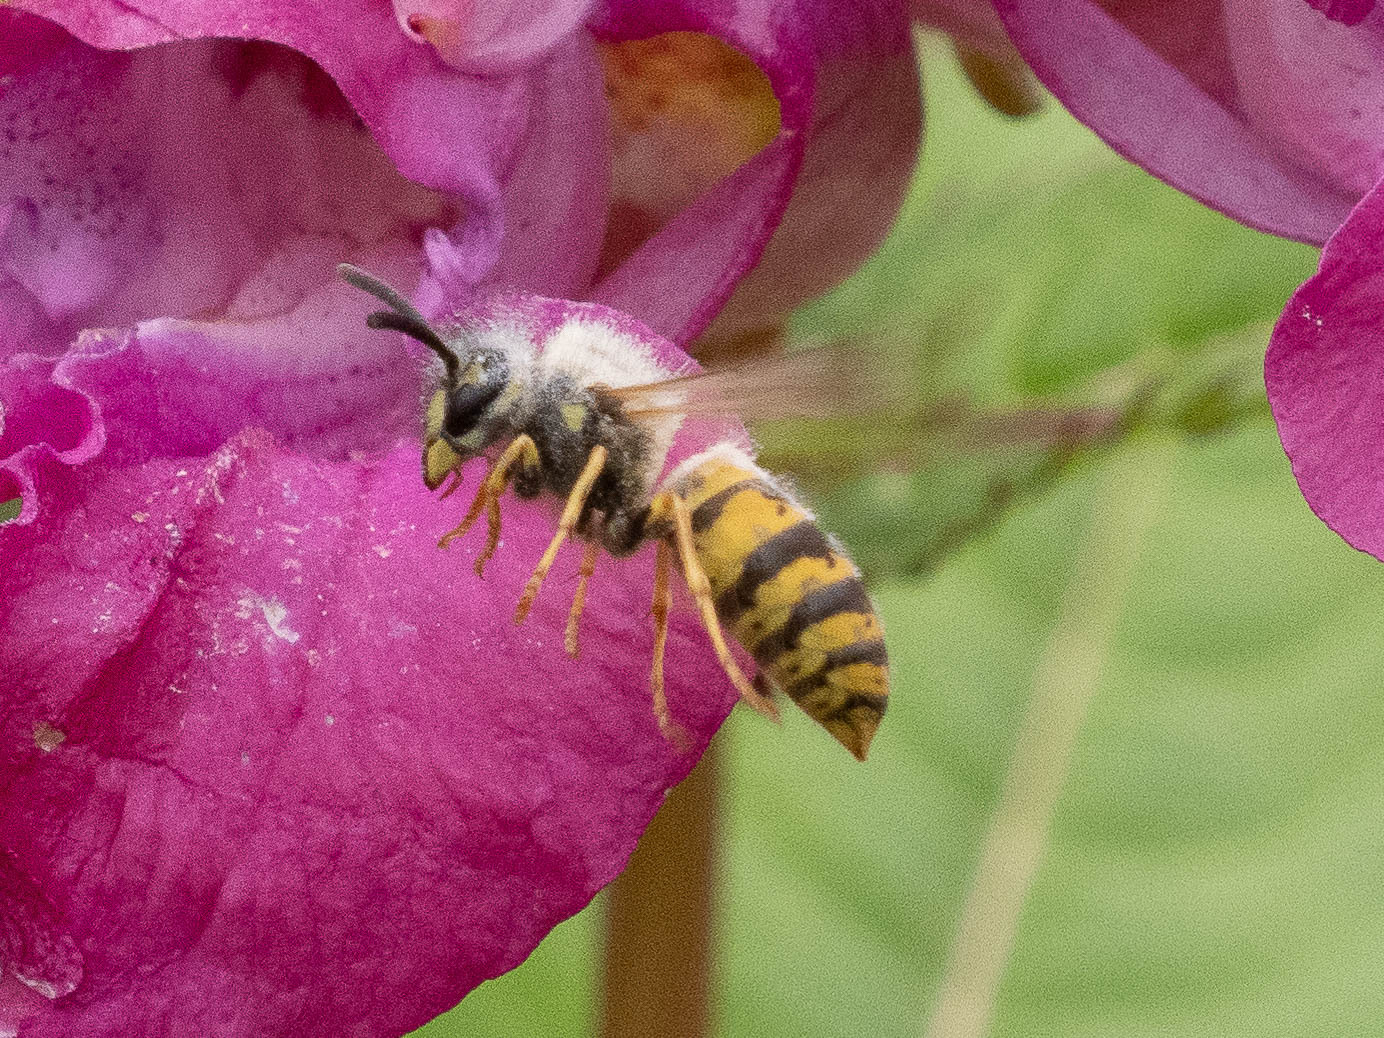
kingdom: Animalia
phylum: Arthropoda
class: Insecta
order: Hymenoptera
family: Vespidae
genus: Vespula
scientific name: Vespula vulgaris
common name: Common wasp
